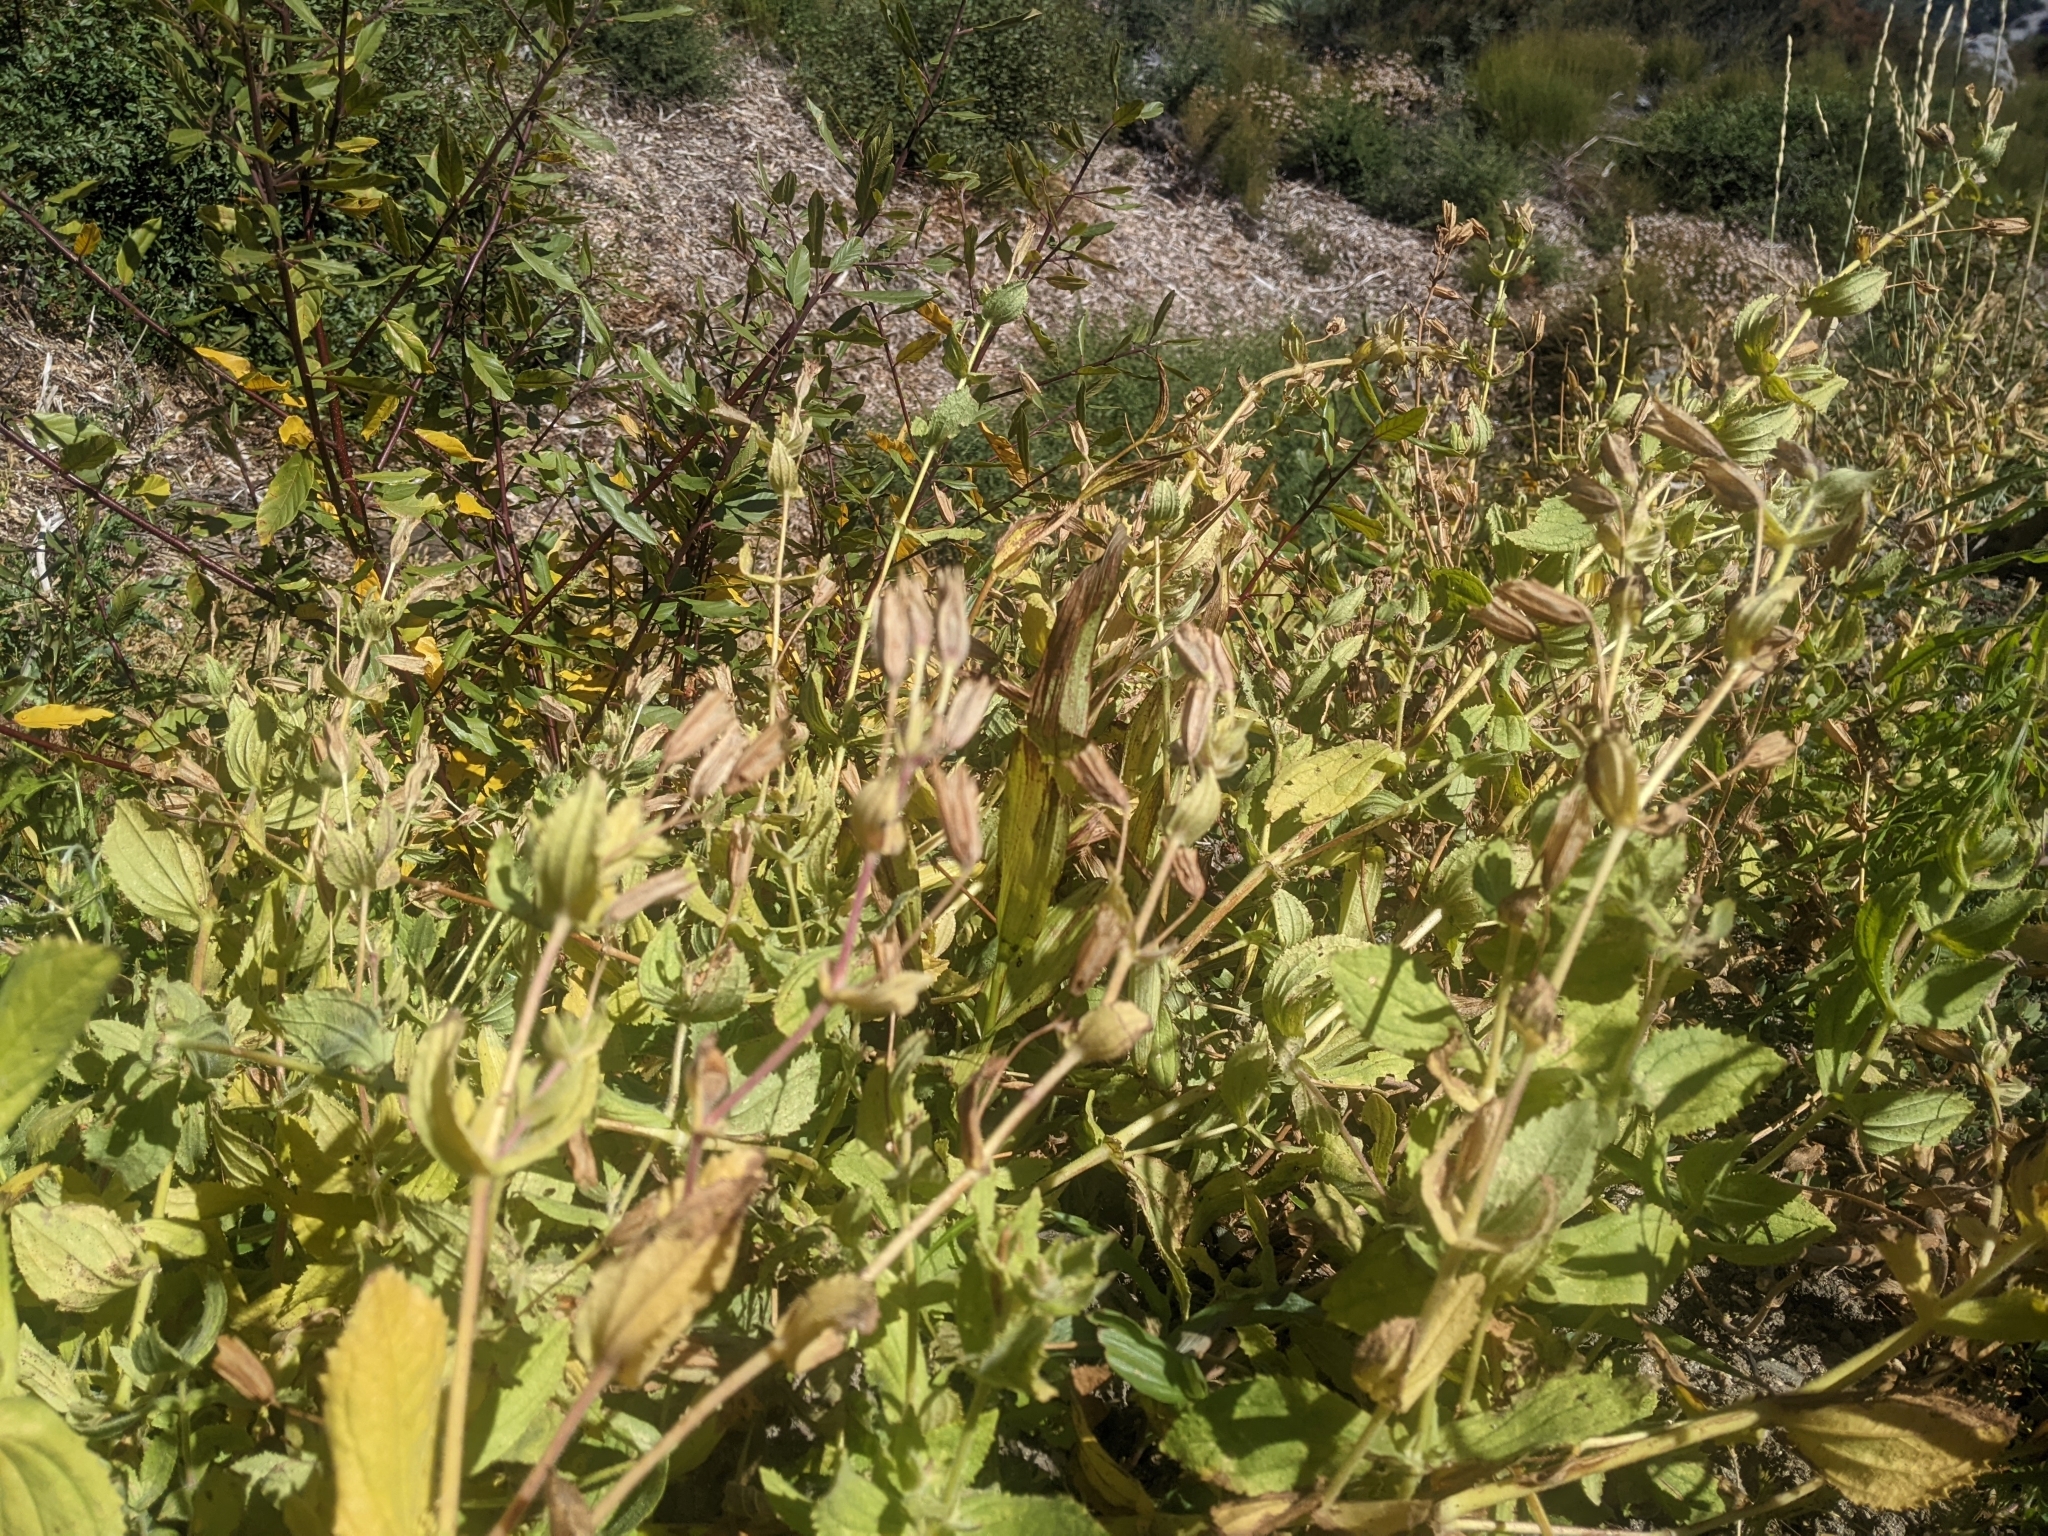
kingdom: Plantae
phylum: Tracheophyta
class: Liliopsida
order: Asparagales
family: Orchidaceae
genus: Epipactis
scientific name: Epipactis gigantea
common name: Chatterbox
